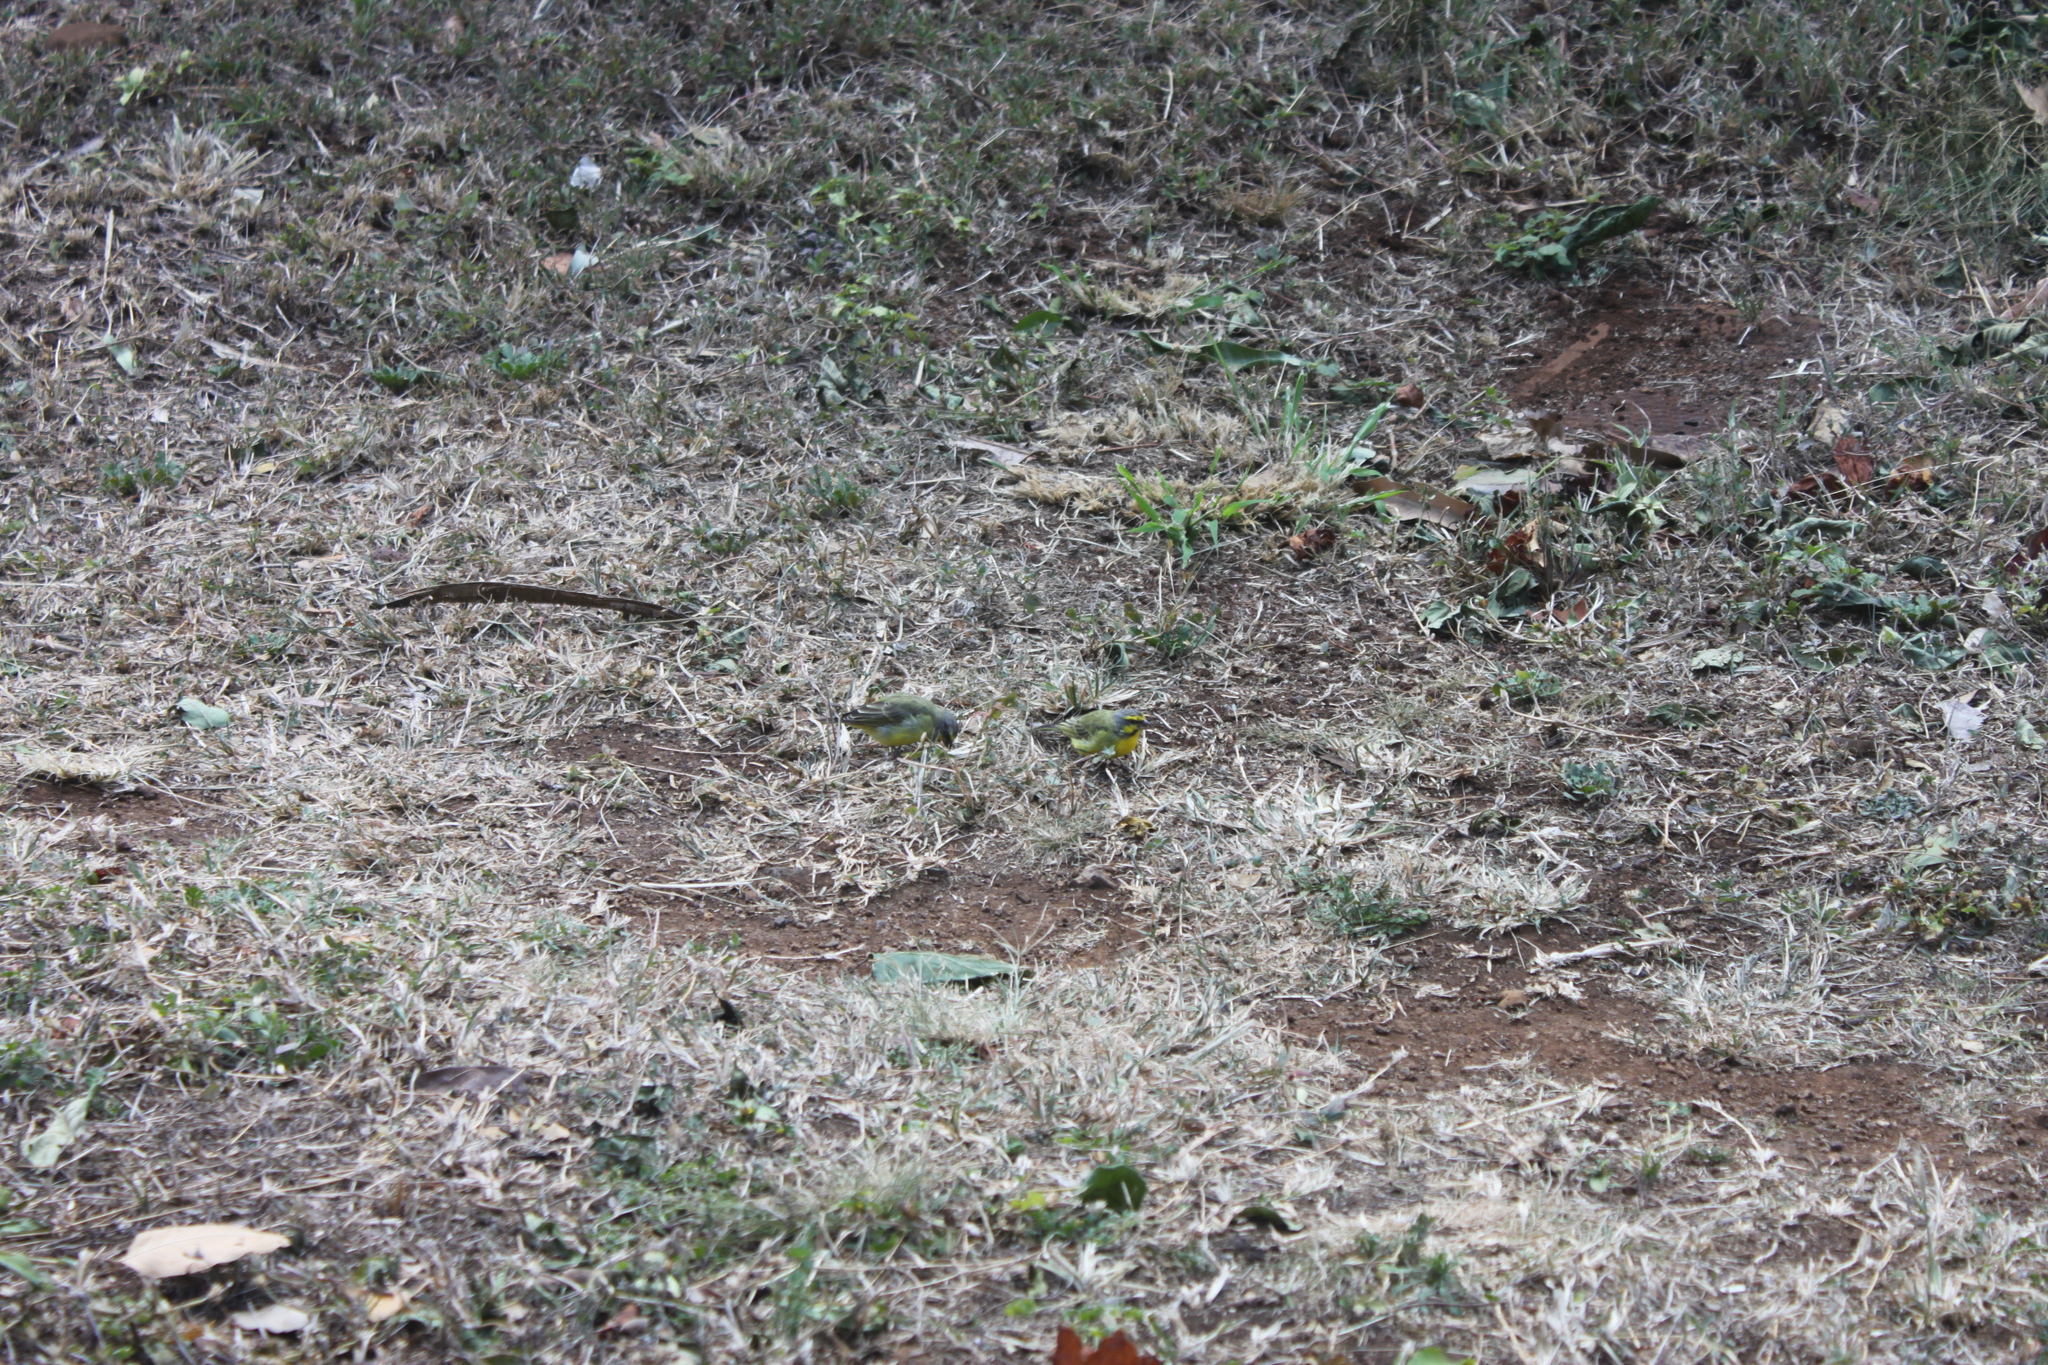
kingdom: Animalia
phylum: Chordata
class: Aves
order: Passeriformes
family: Fringillidae
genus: Crithagra
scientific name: Crithagra mozambica
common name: Yellow-fronted canary
